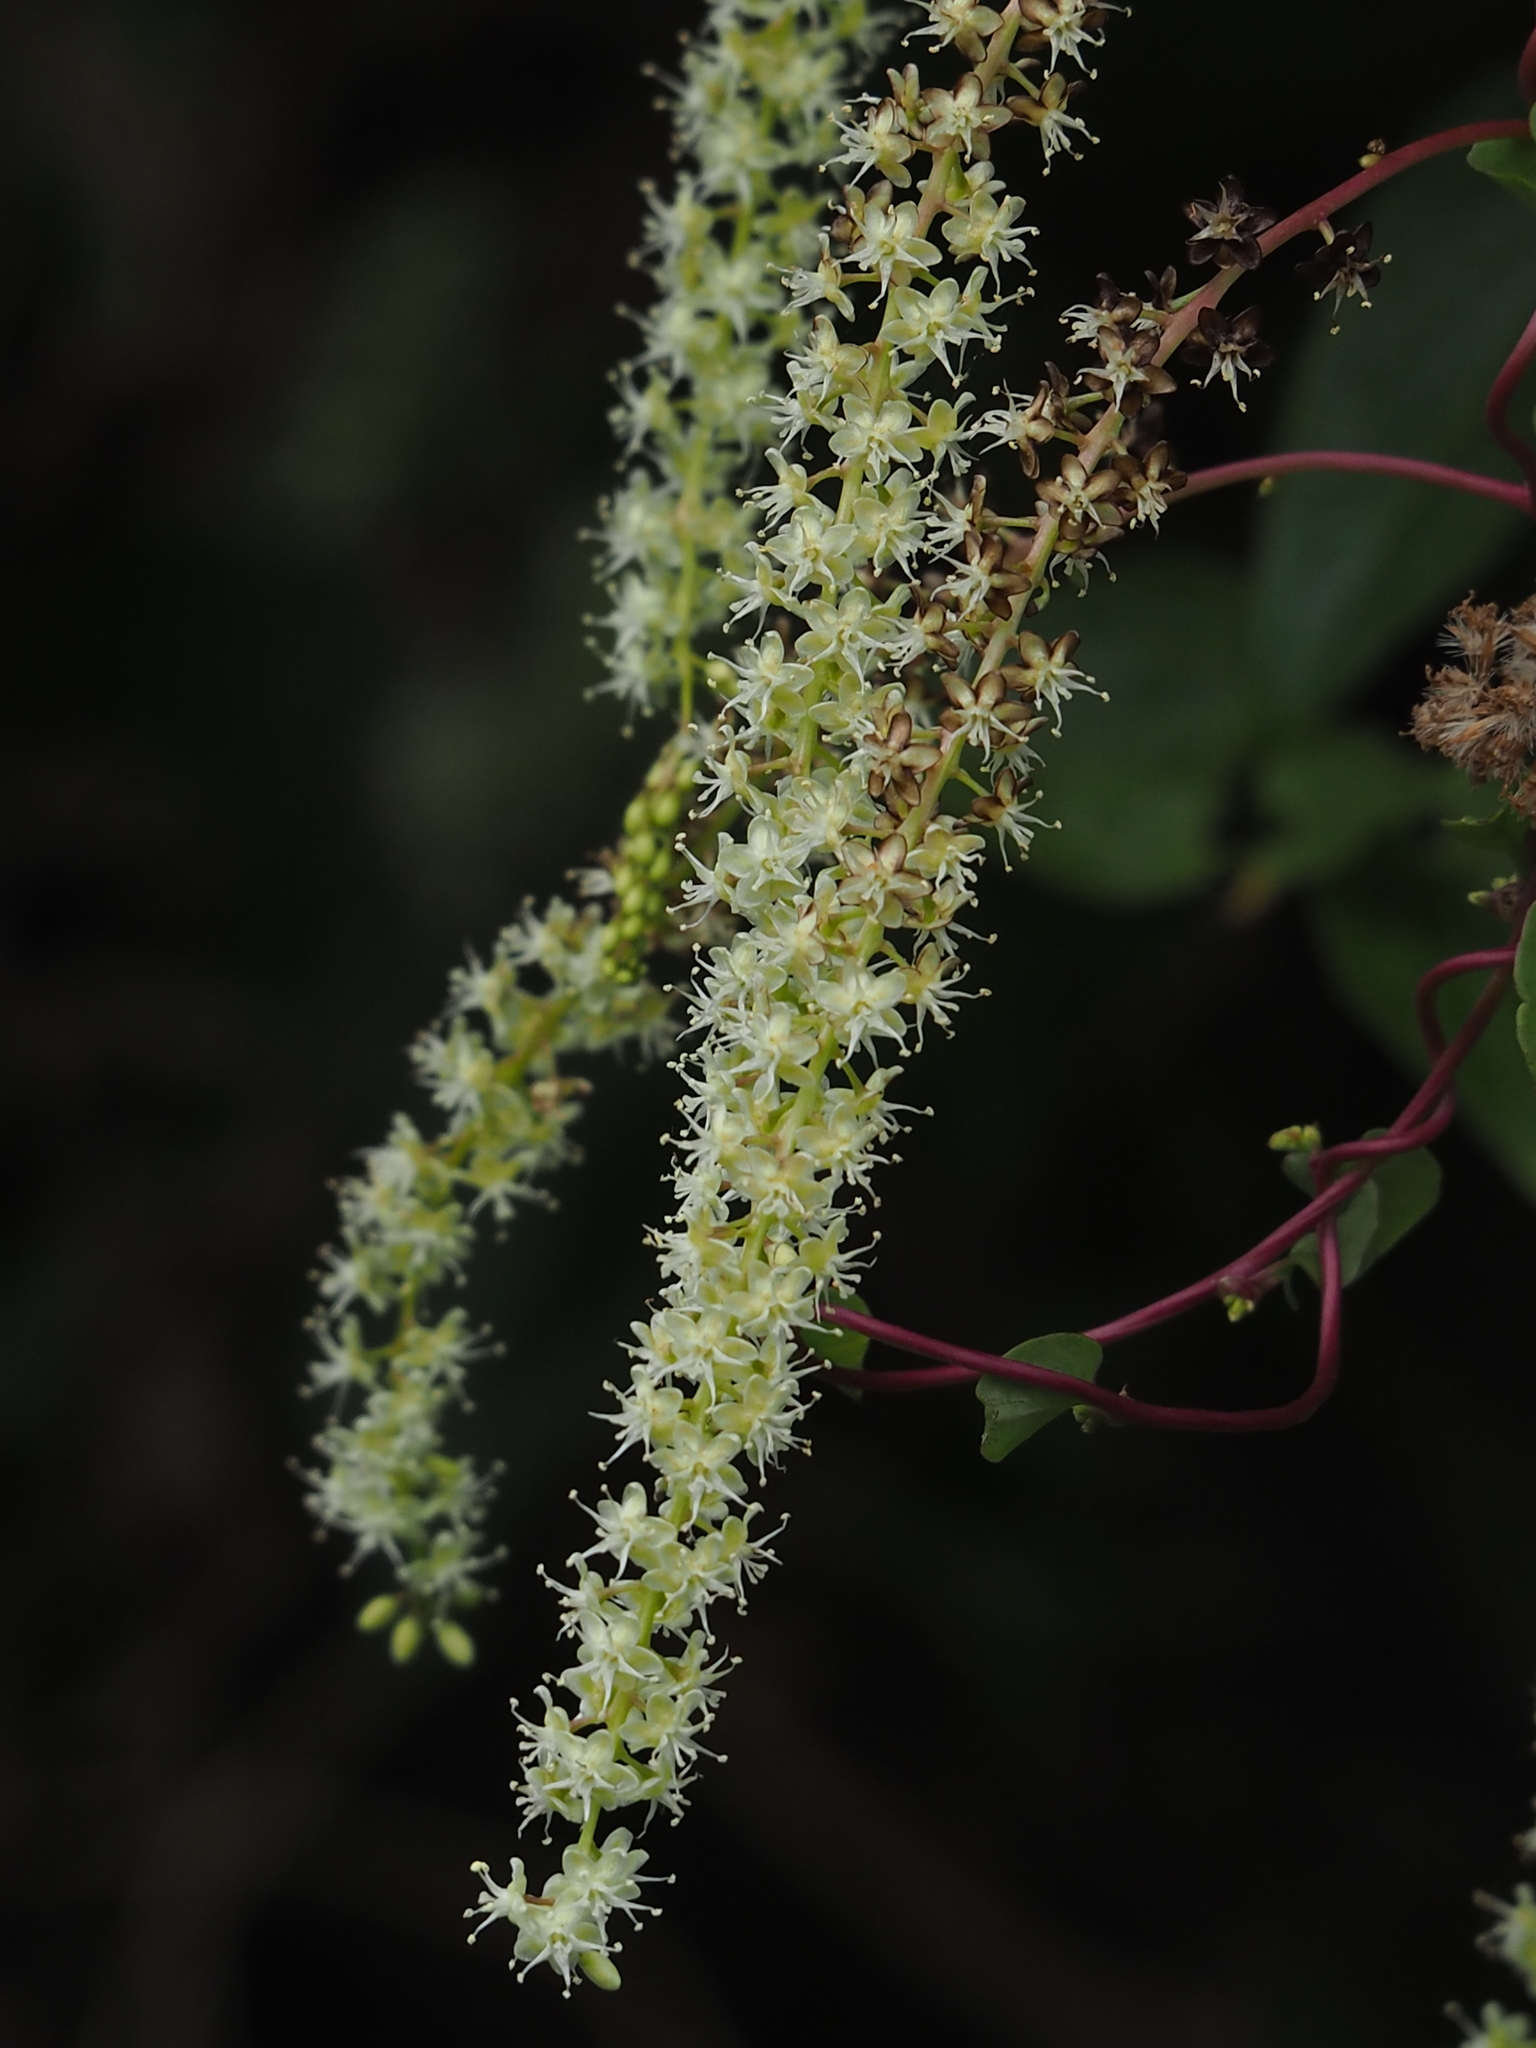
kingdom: Plantae
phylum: Tracheophyta
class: Magnoliopsida
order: Caryophyllales
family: Basellaceae
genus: Anredera
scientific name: Anredera cordifolia
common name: Heartleaf madeiravine
